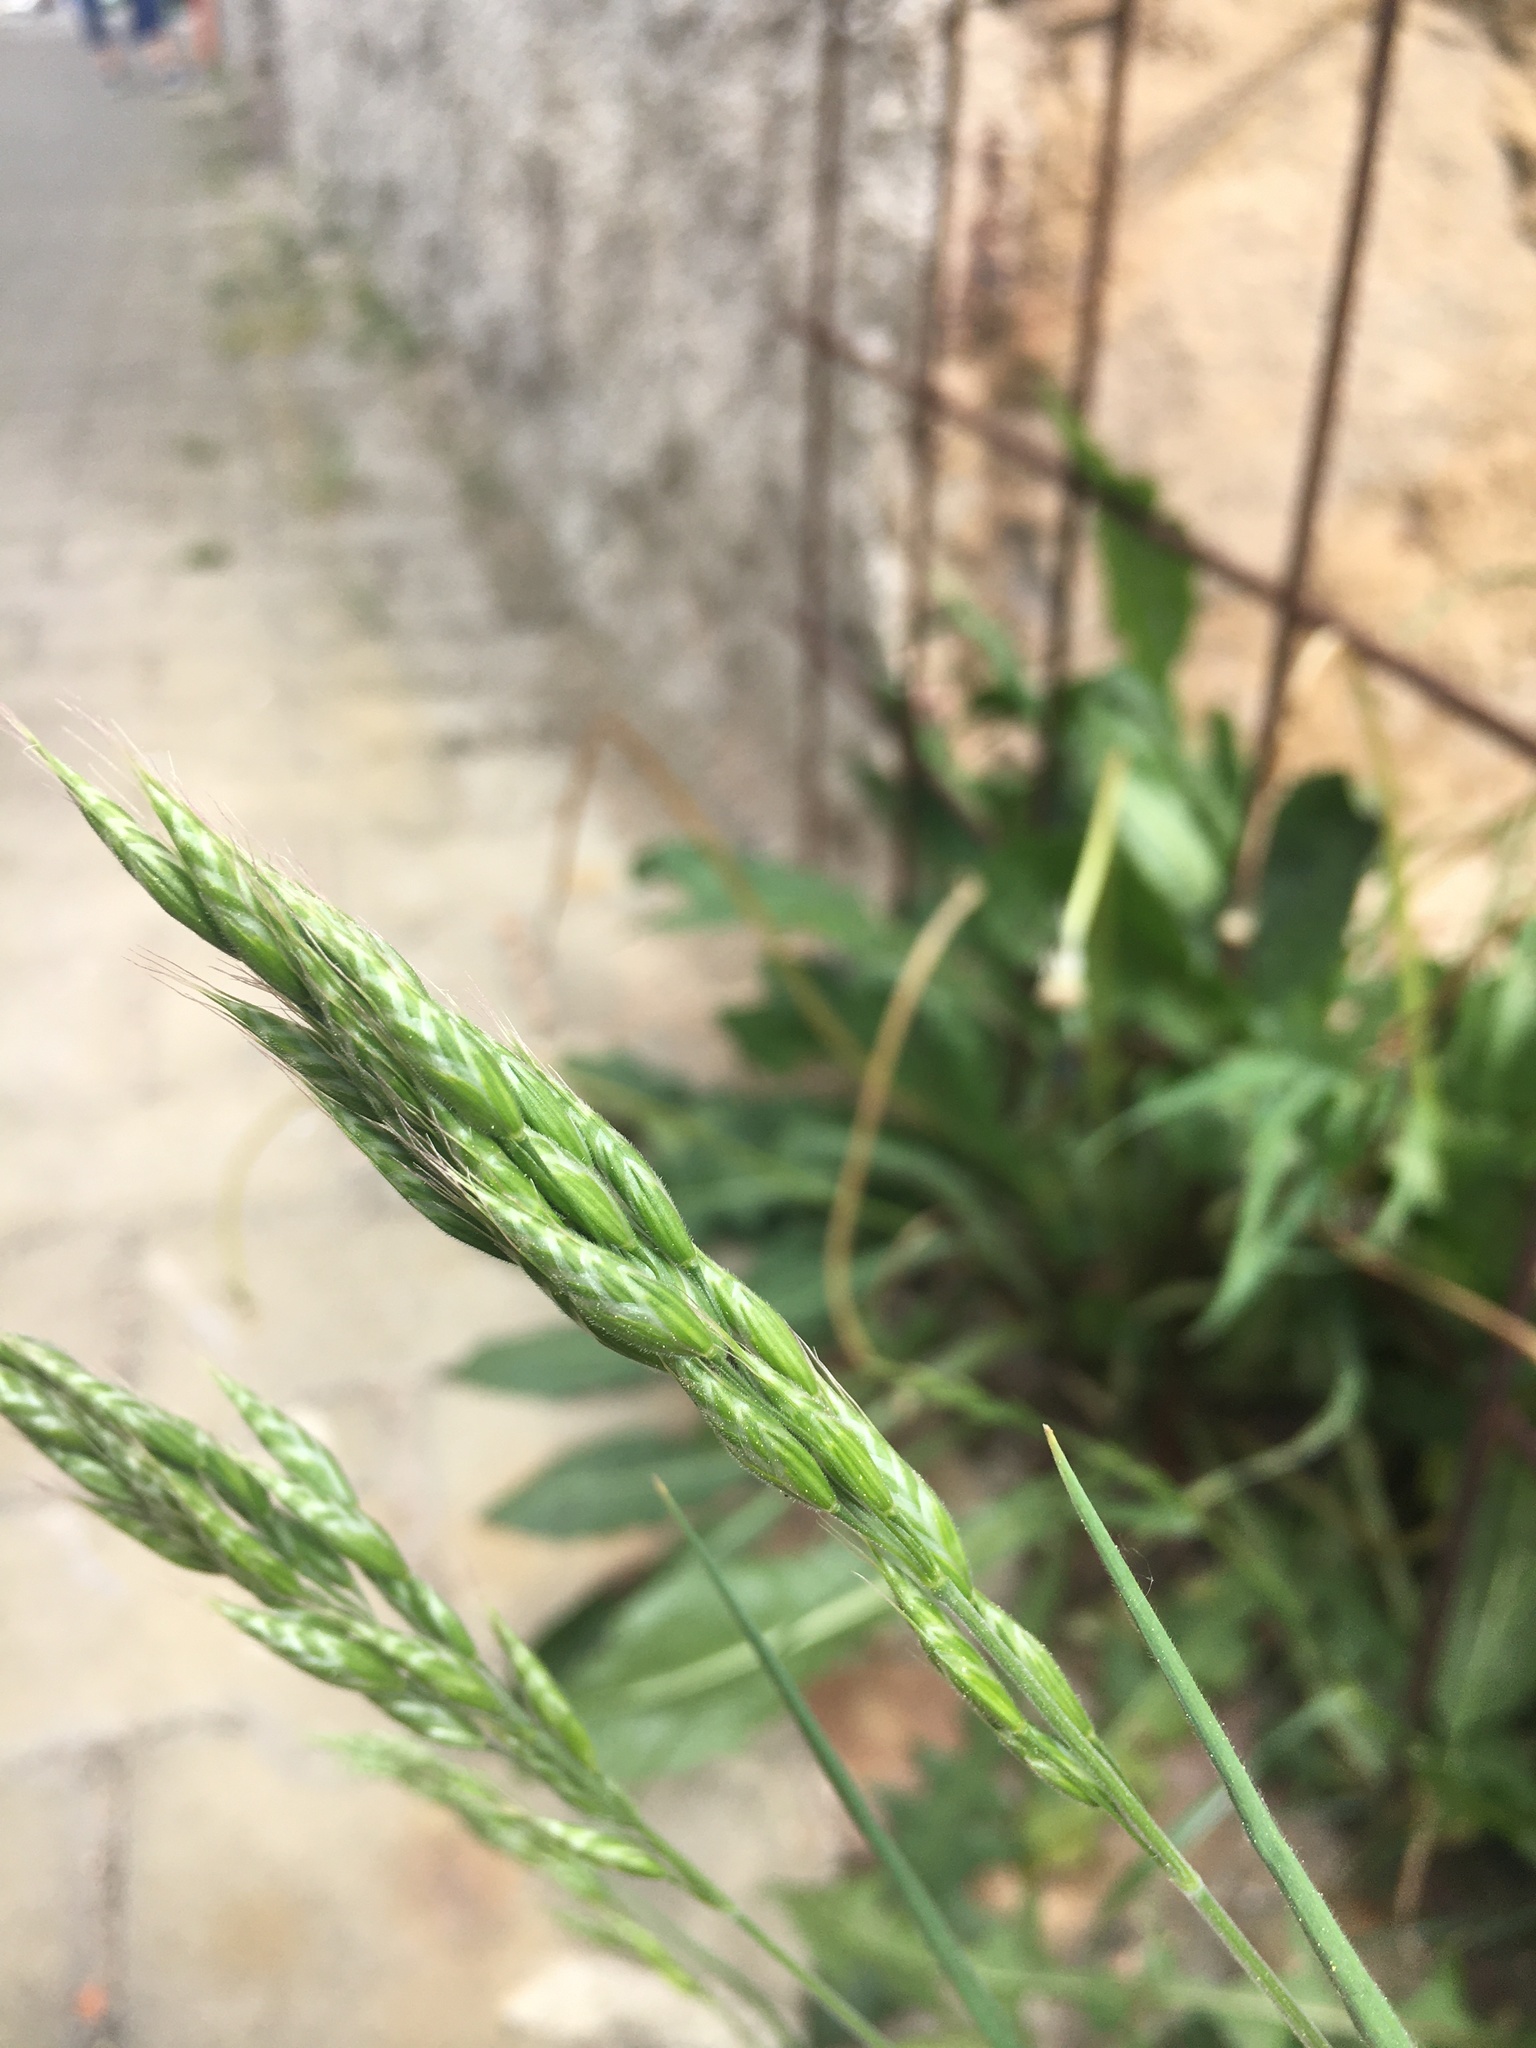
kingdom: Plantae
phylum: Tracheophyta
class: Liliopsida
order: Poales
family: Poaceae
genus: Bromus
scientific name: Bromus hordeaceus
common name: Soft brome
